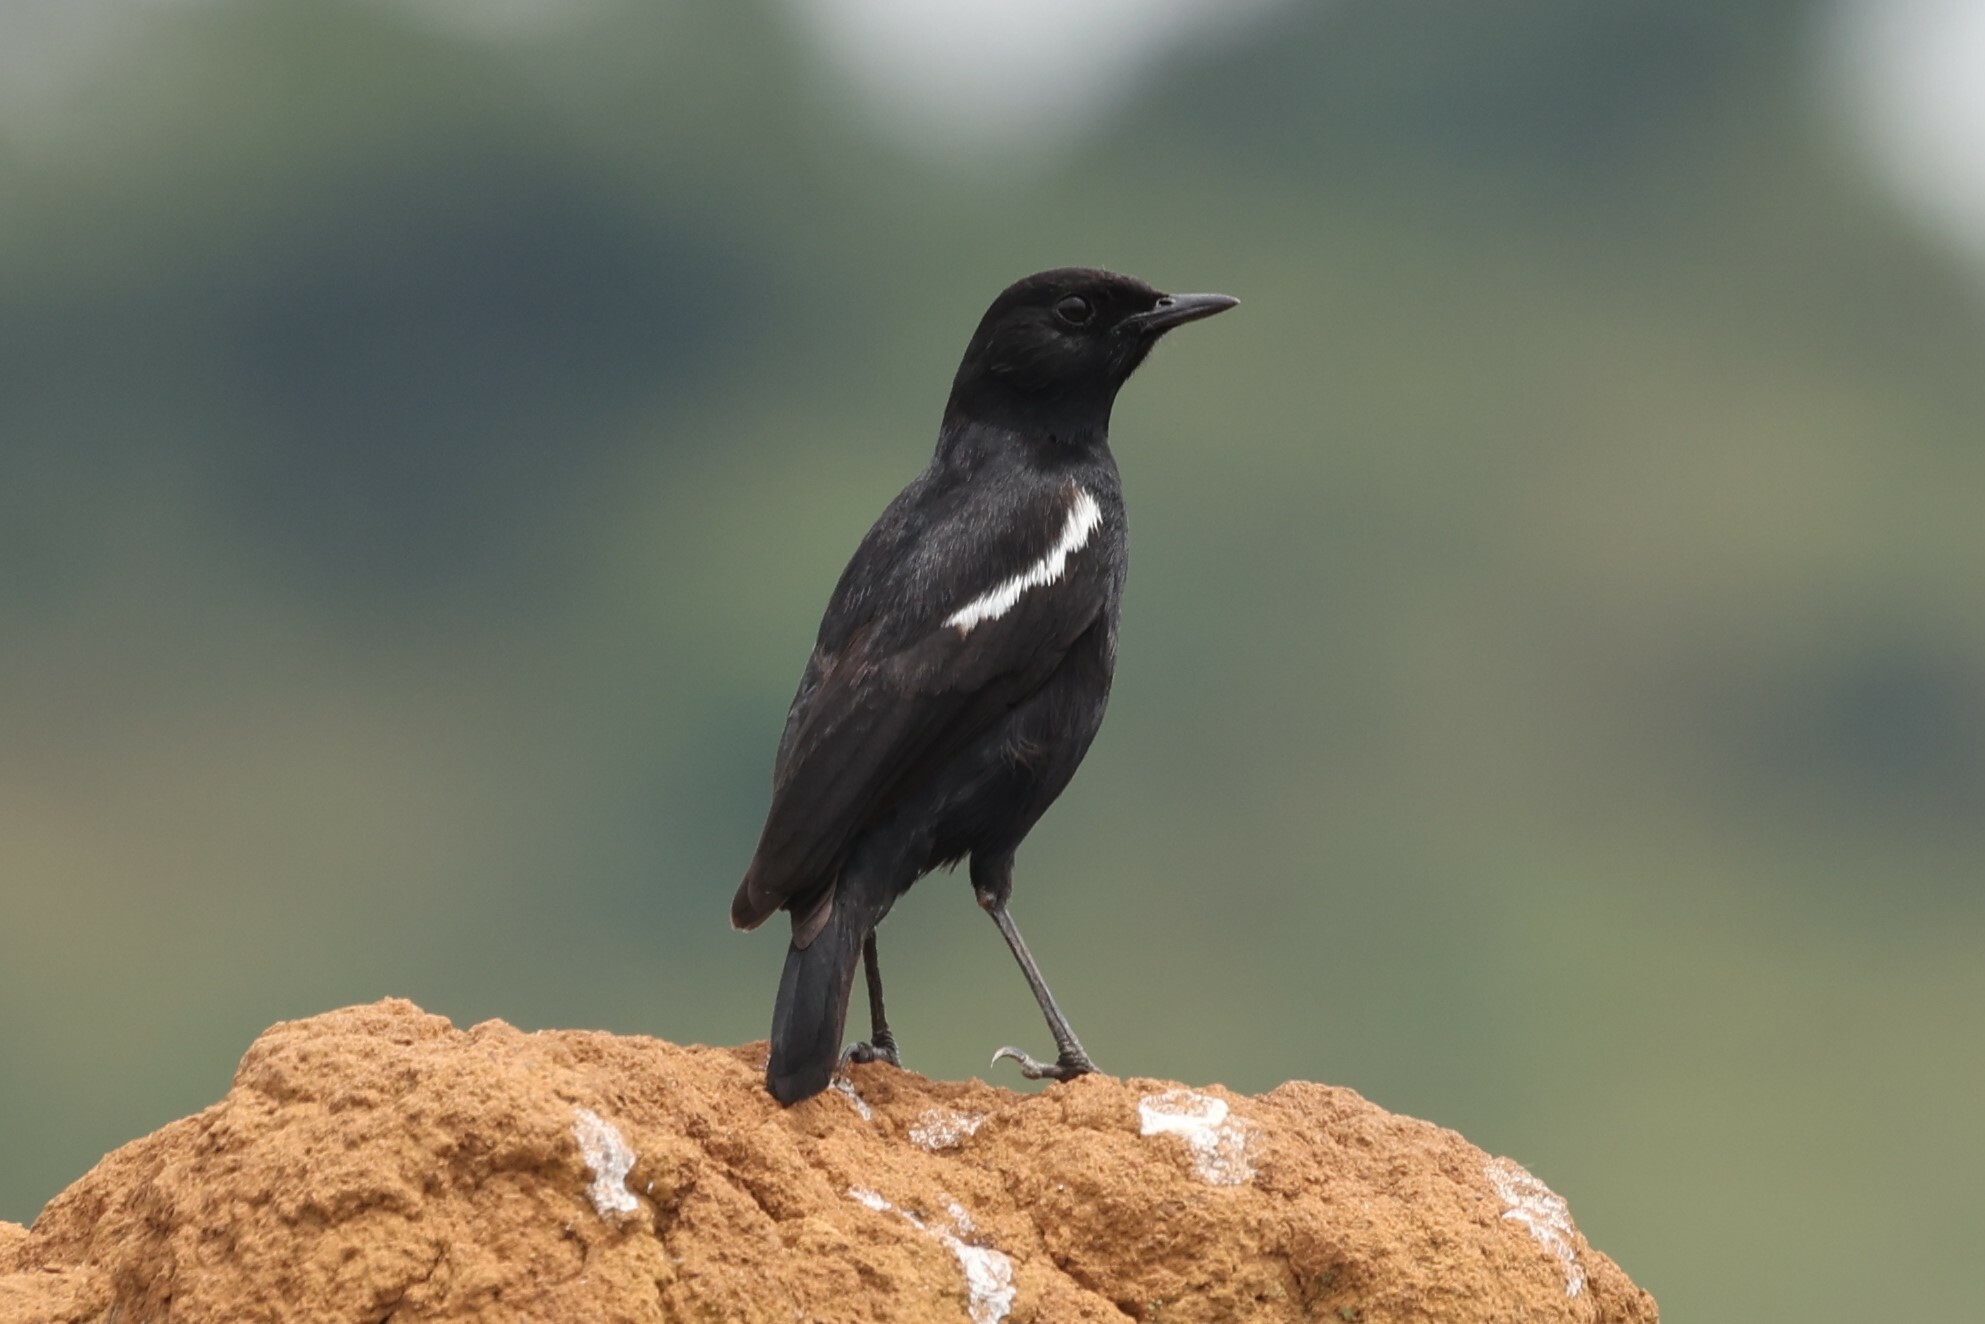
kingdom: Animalia
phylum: Chordata
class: Aves
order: Passeriformes
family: Muscicapidae
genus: Myrmecocichla
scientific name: Myrmecocichla nigra
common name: Sooty chat
